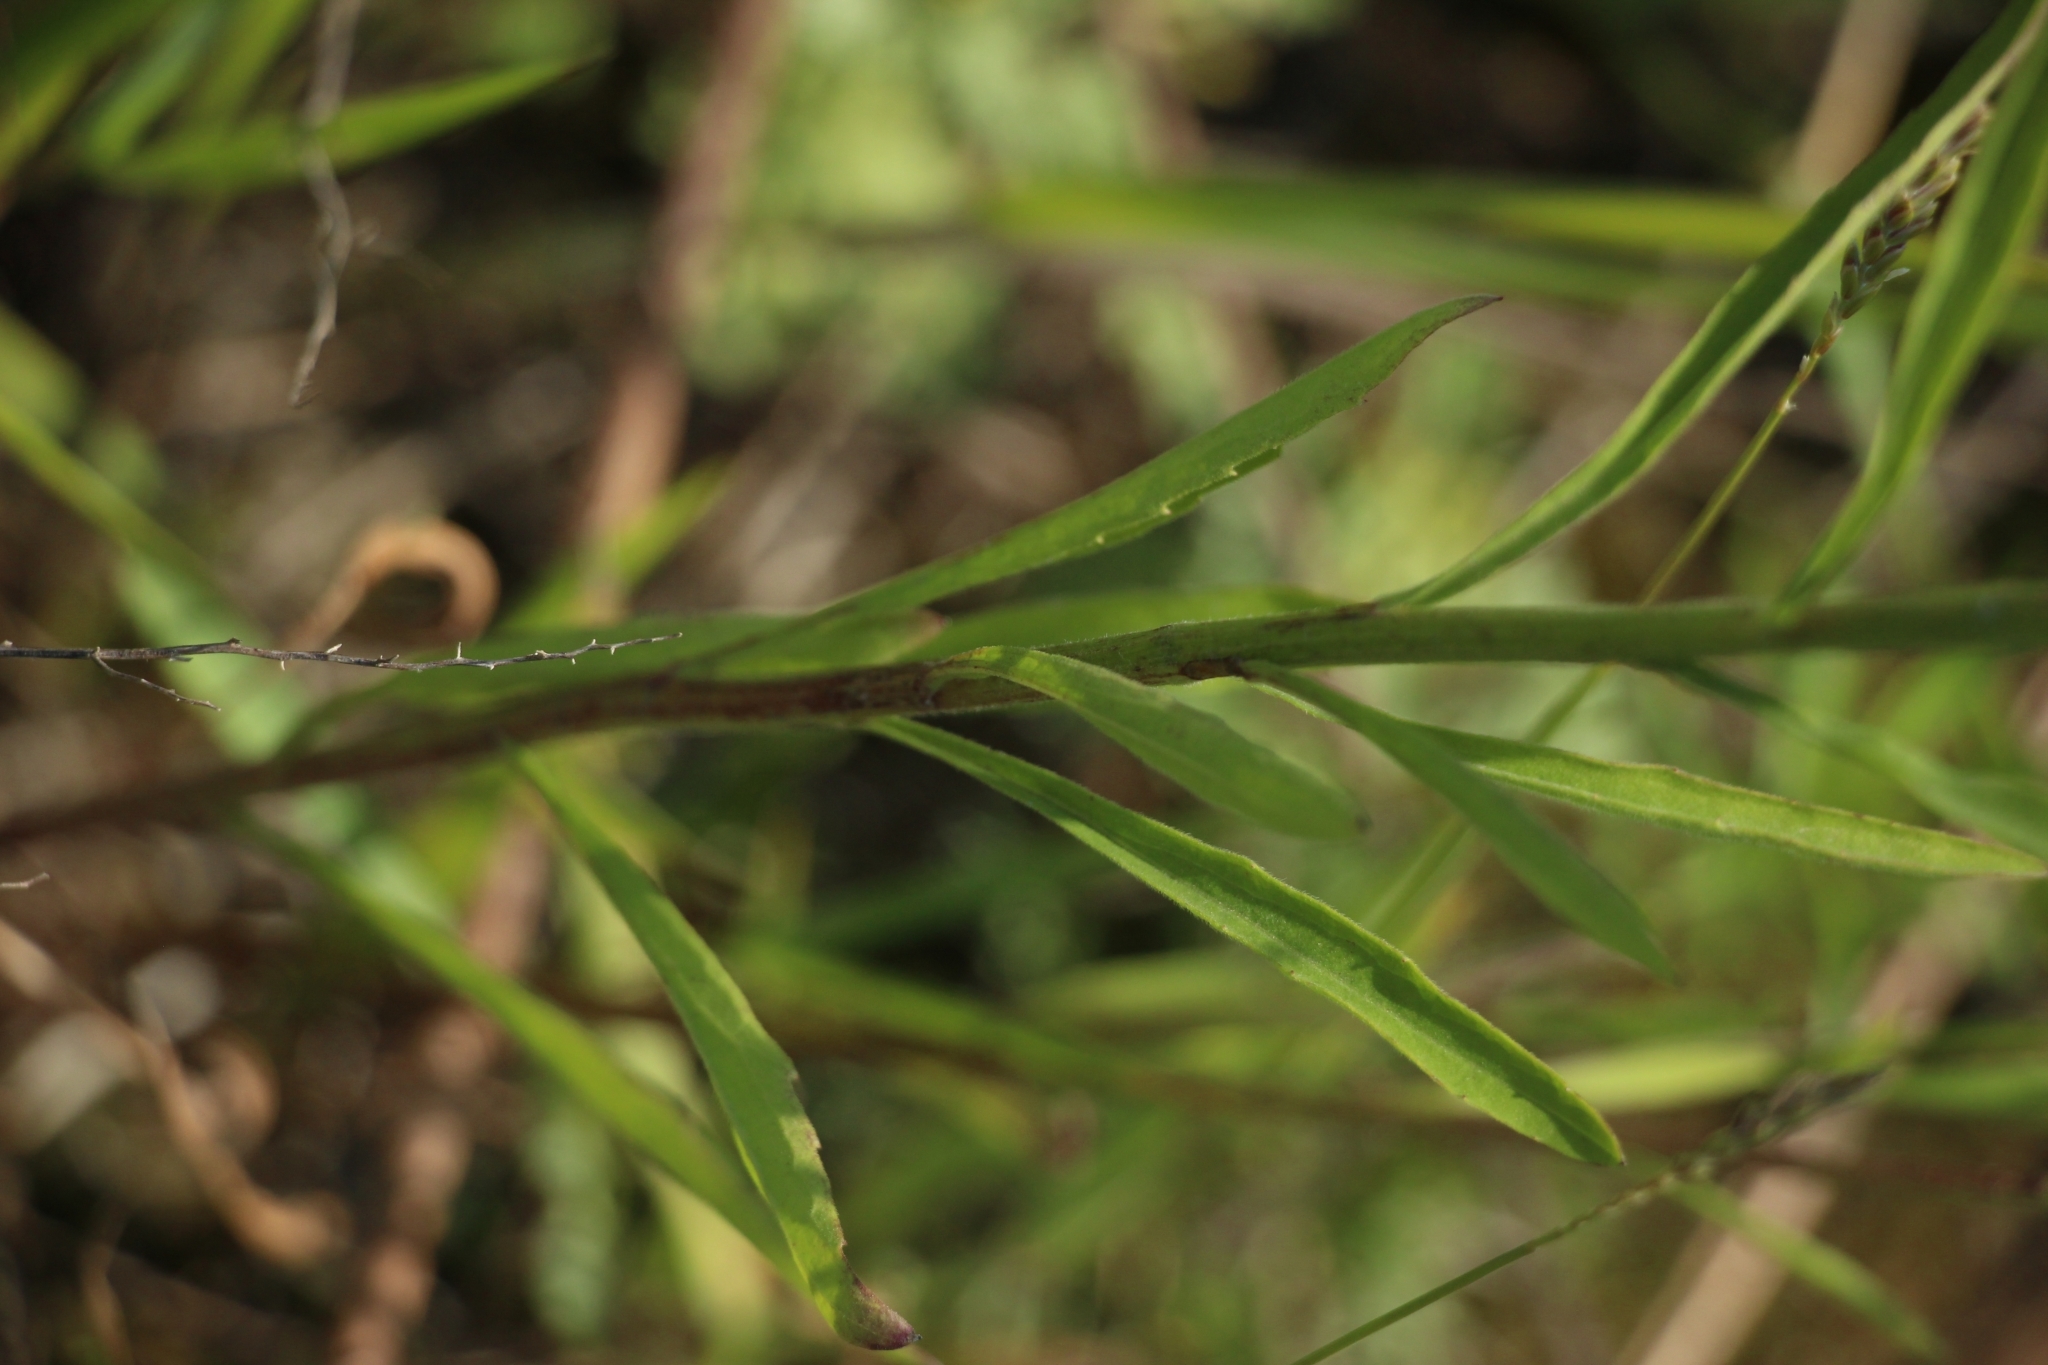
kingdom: Plantae
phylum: Tracheophyta
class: Magnoliopsida
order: Asterales
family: Asteraceae
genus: Erigeron
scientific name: Erigeron annuus
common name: Tall fleabane
